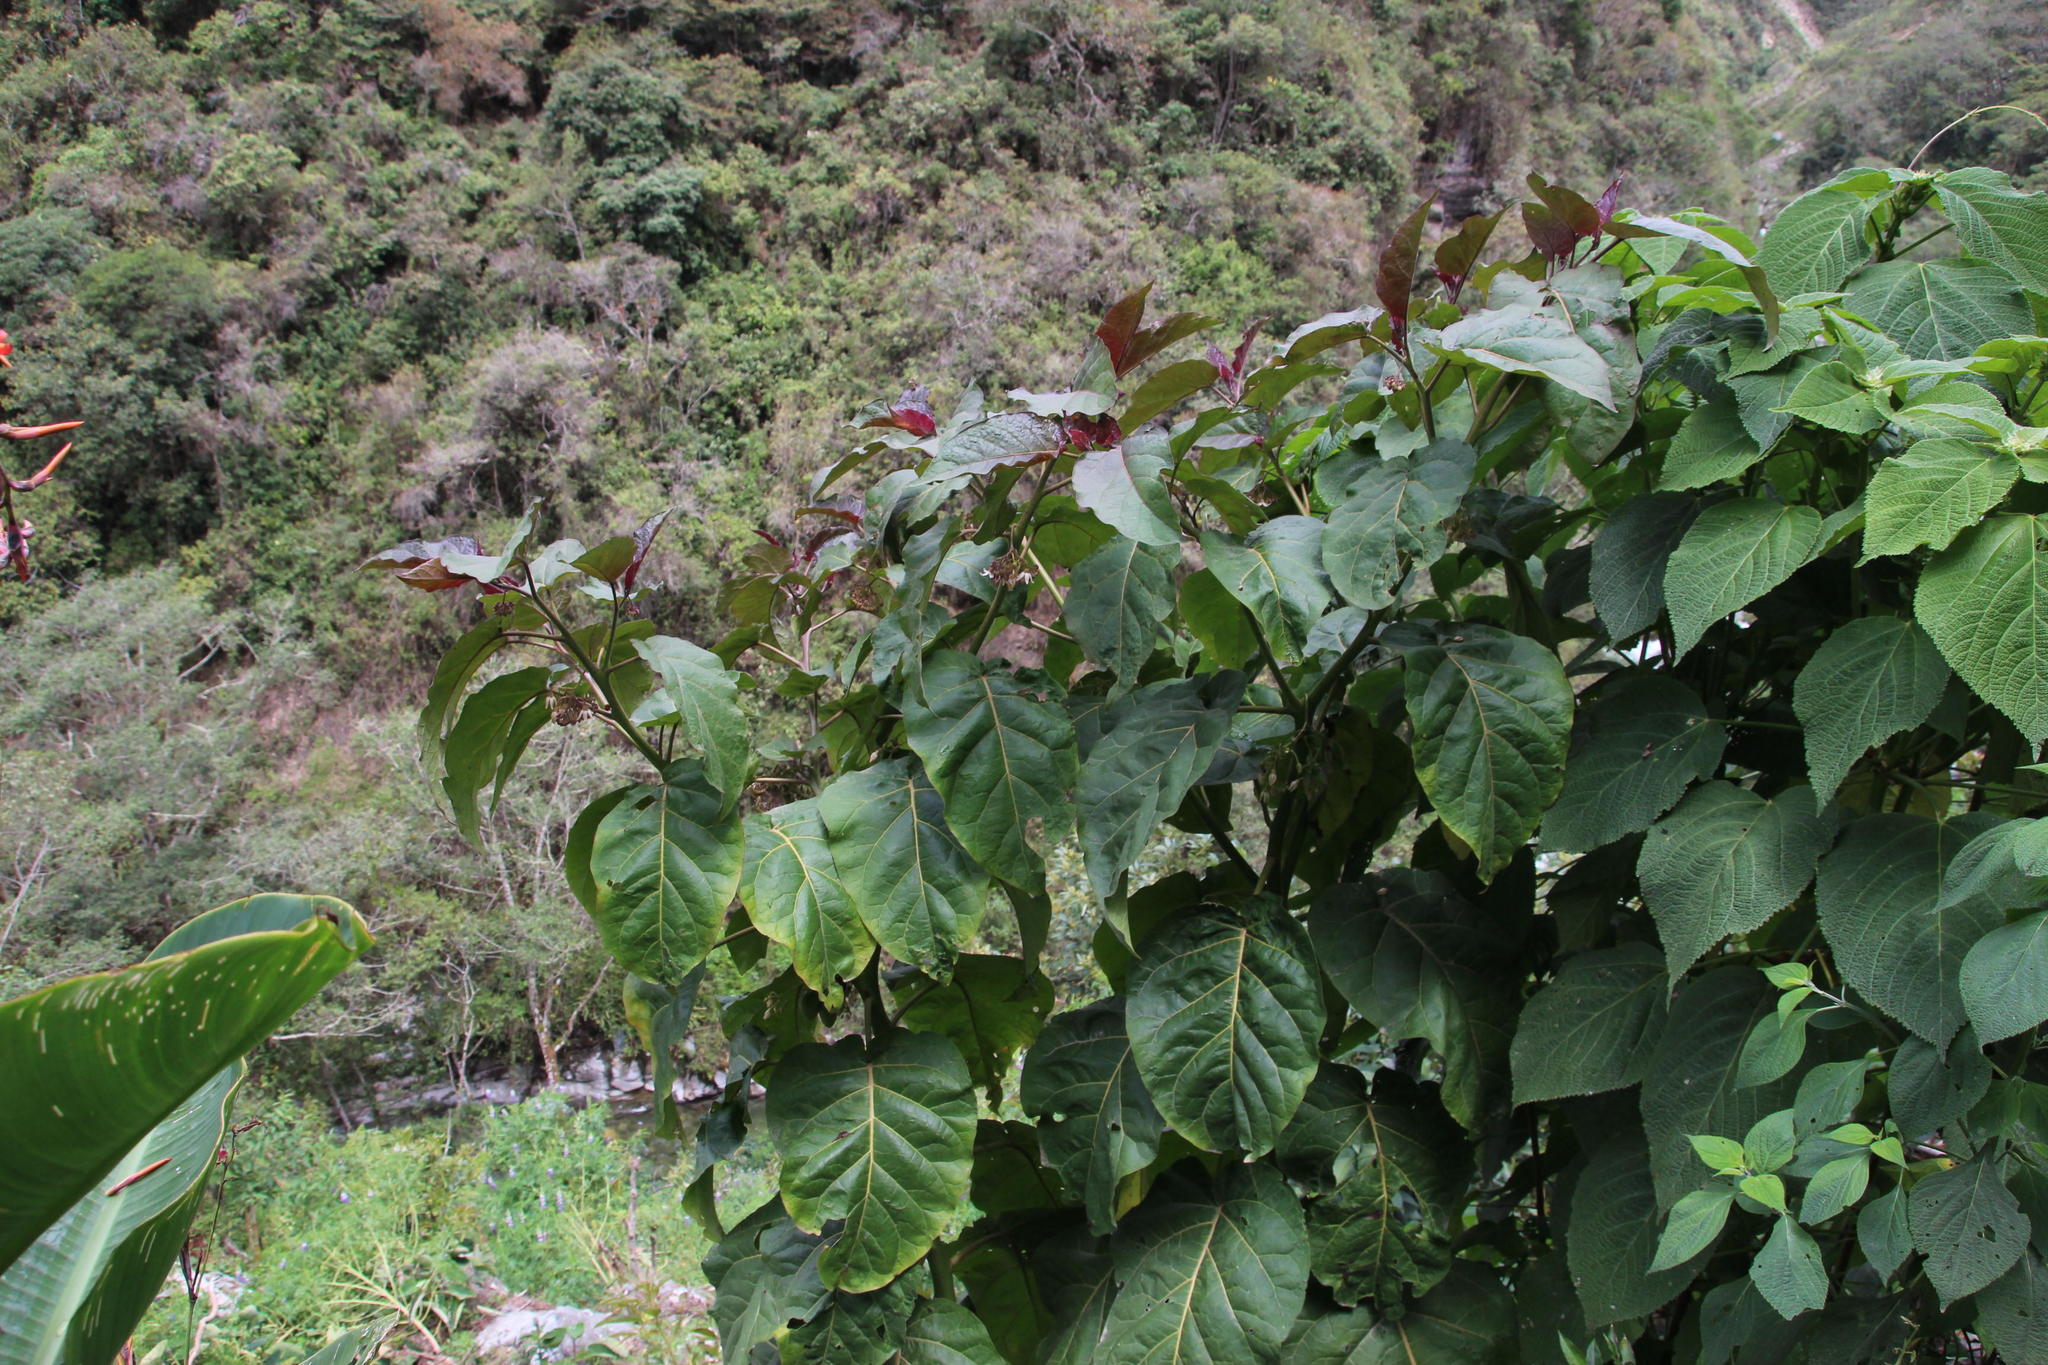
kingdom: Plantae
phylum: Tracheophyta
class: Magnoliopsida
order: Solanales
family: Solanaceae
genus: Solanum
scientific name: Solanum betaceum
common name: Tamarillo
